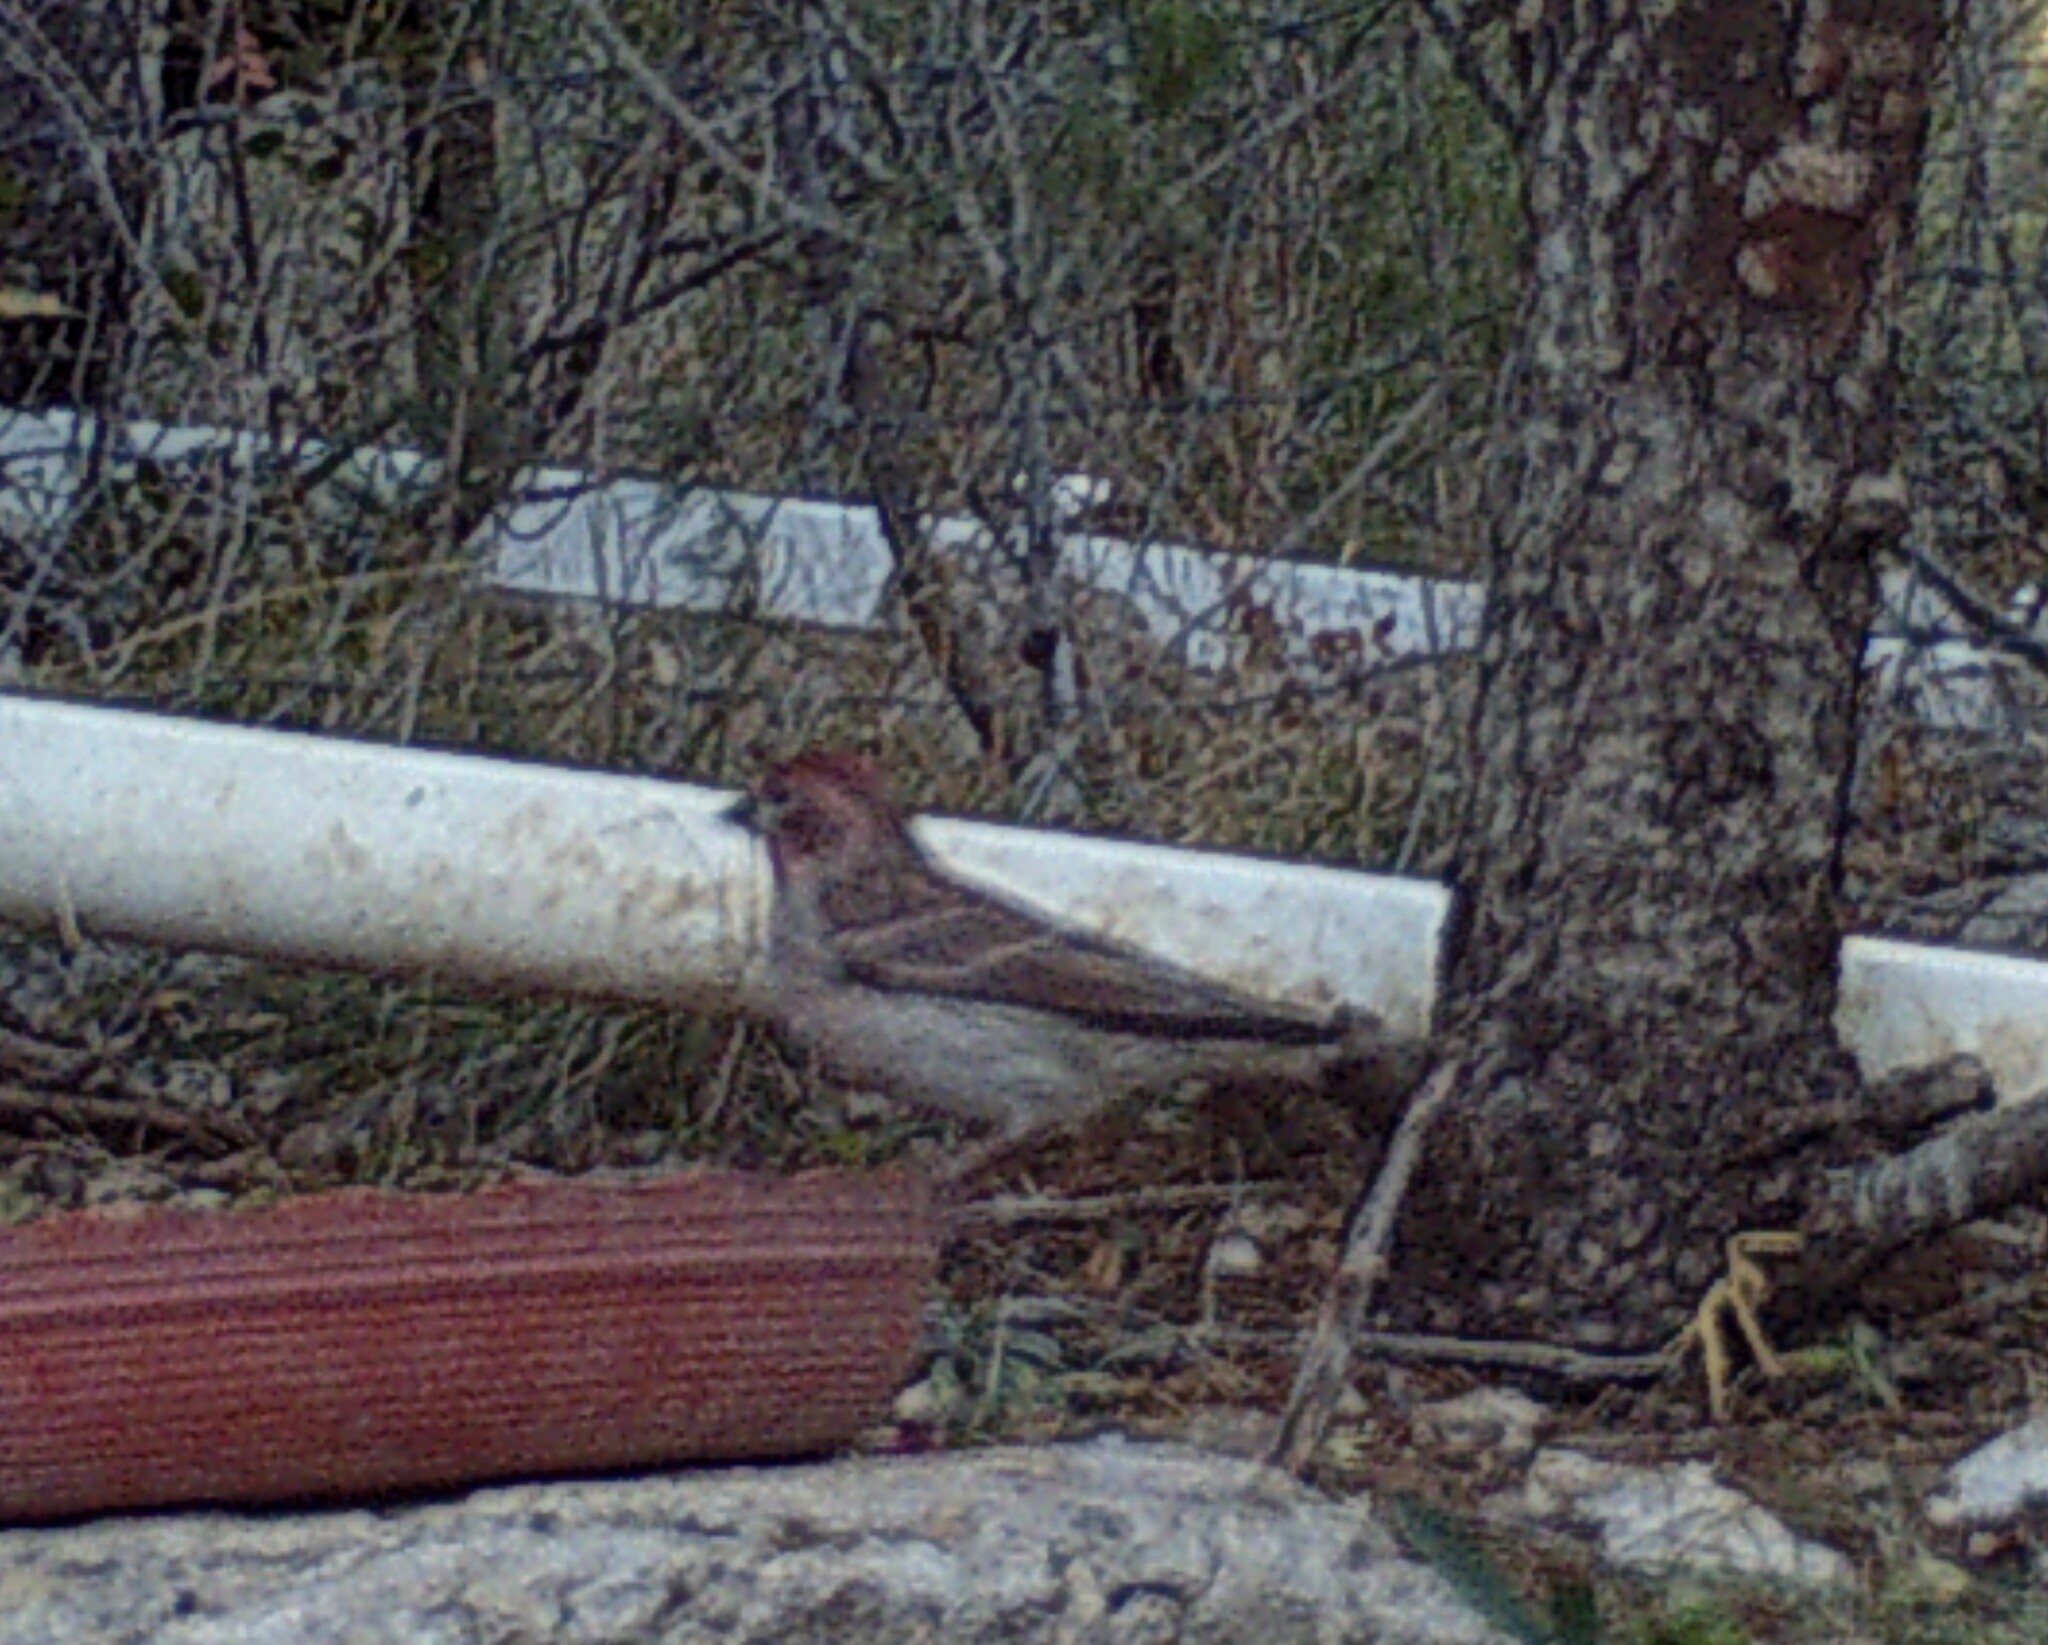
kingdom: Animalia
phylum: Chordata
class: Aves
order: Passeriformes
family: Fringillidae
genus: Haemorhous
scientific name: Haemorhous cassinii
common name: Cassin's finch
